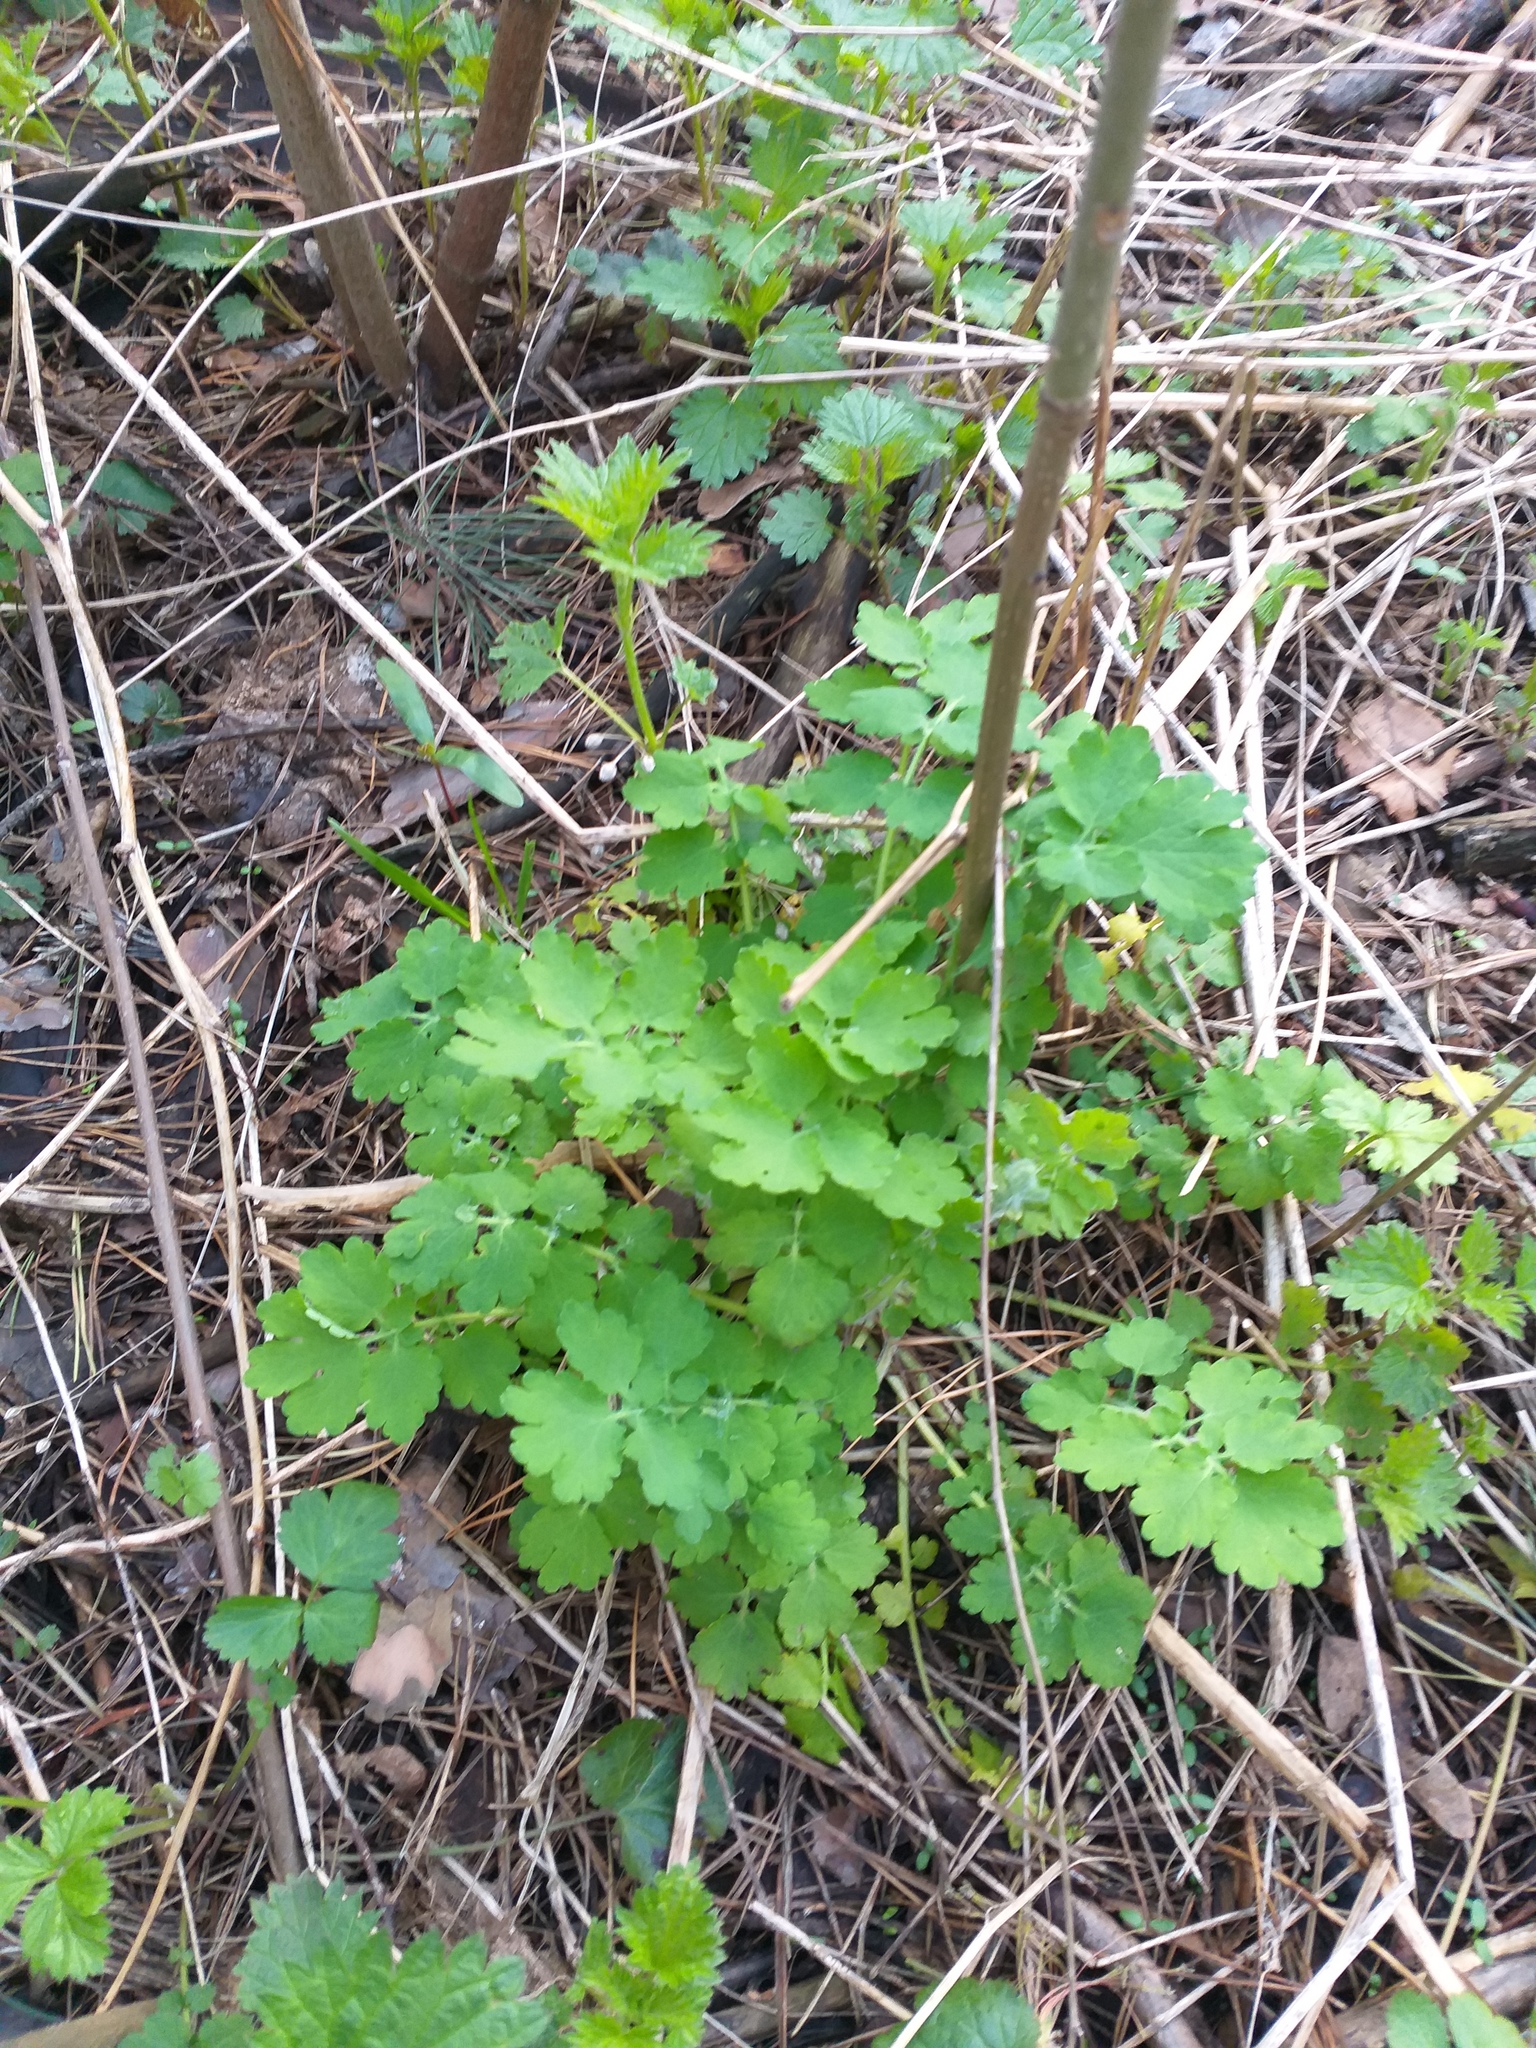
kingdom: Plantae
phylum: Tracheophyta
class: Magnoliopsida
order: Ranunculales
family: Papaveraceae
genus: Chelidonium
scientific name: Chelidonium majus
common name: Greater celandine
